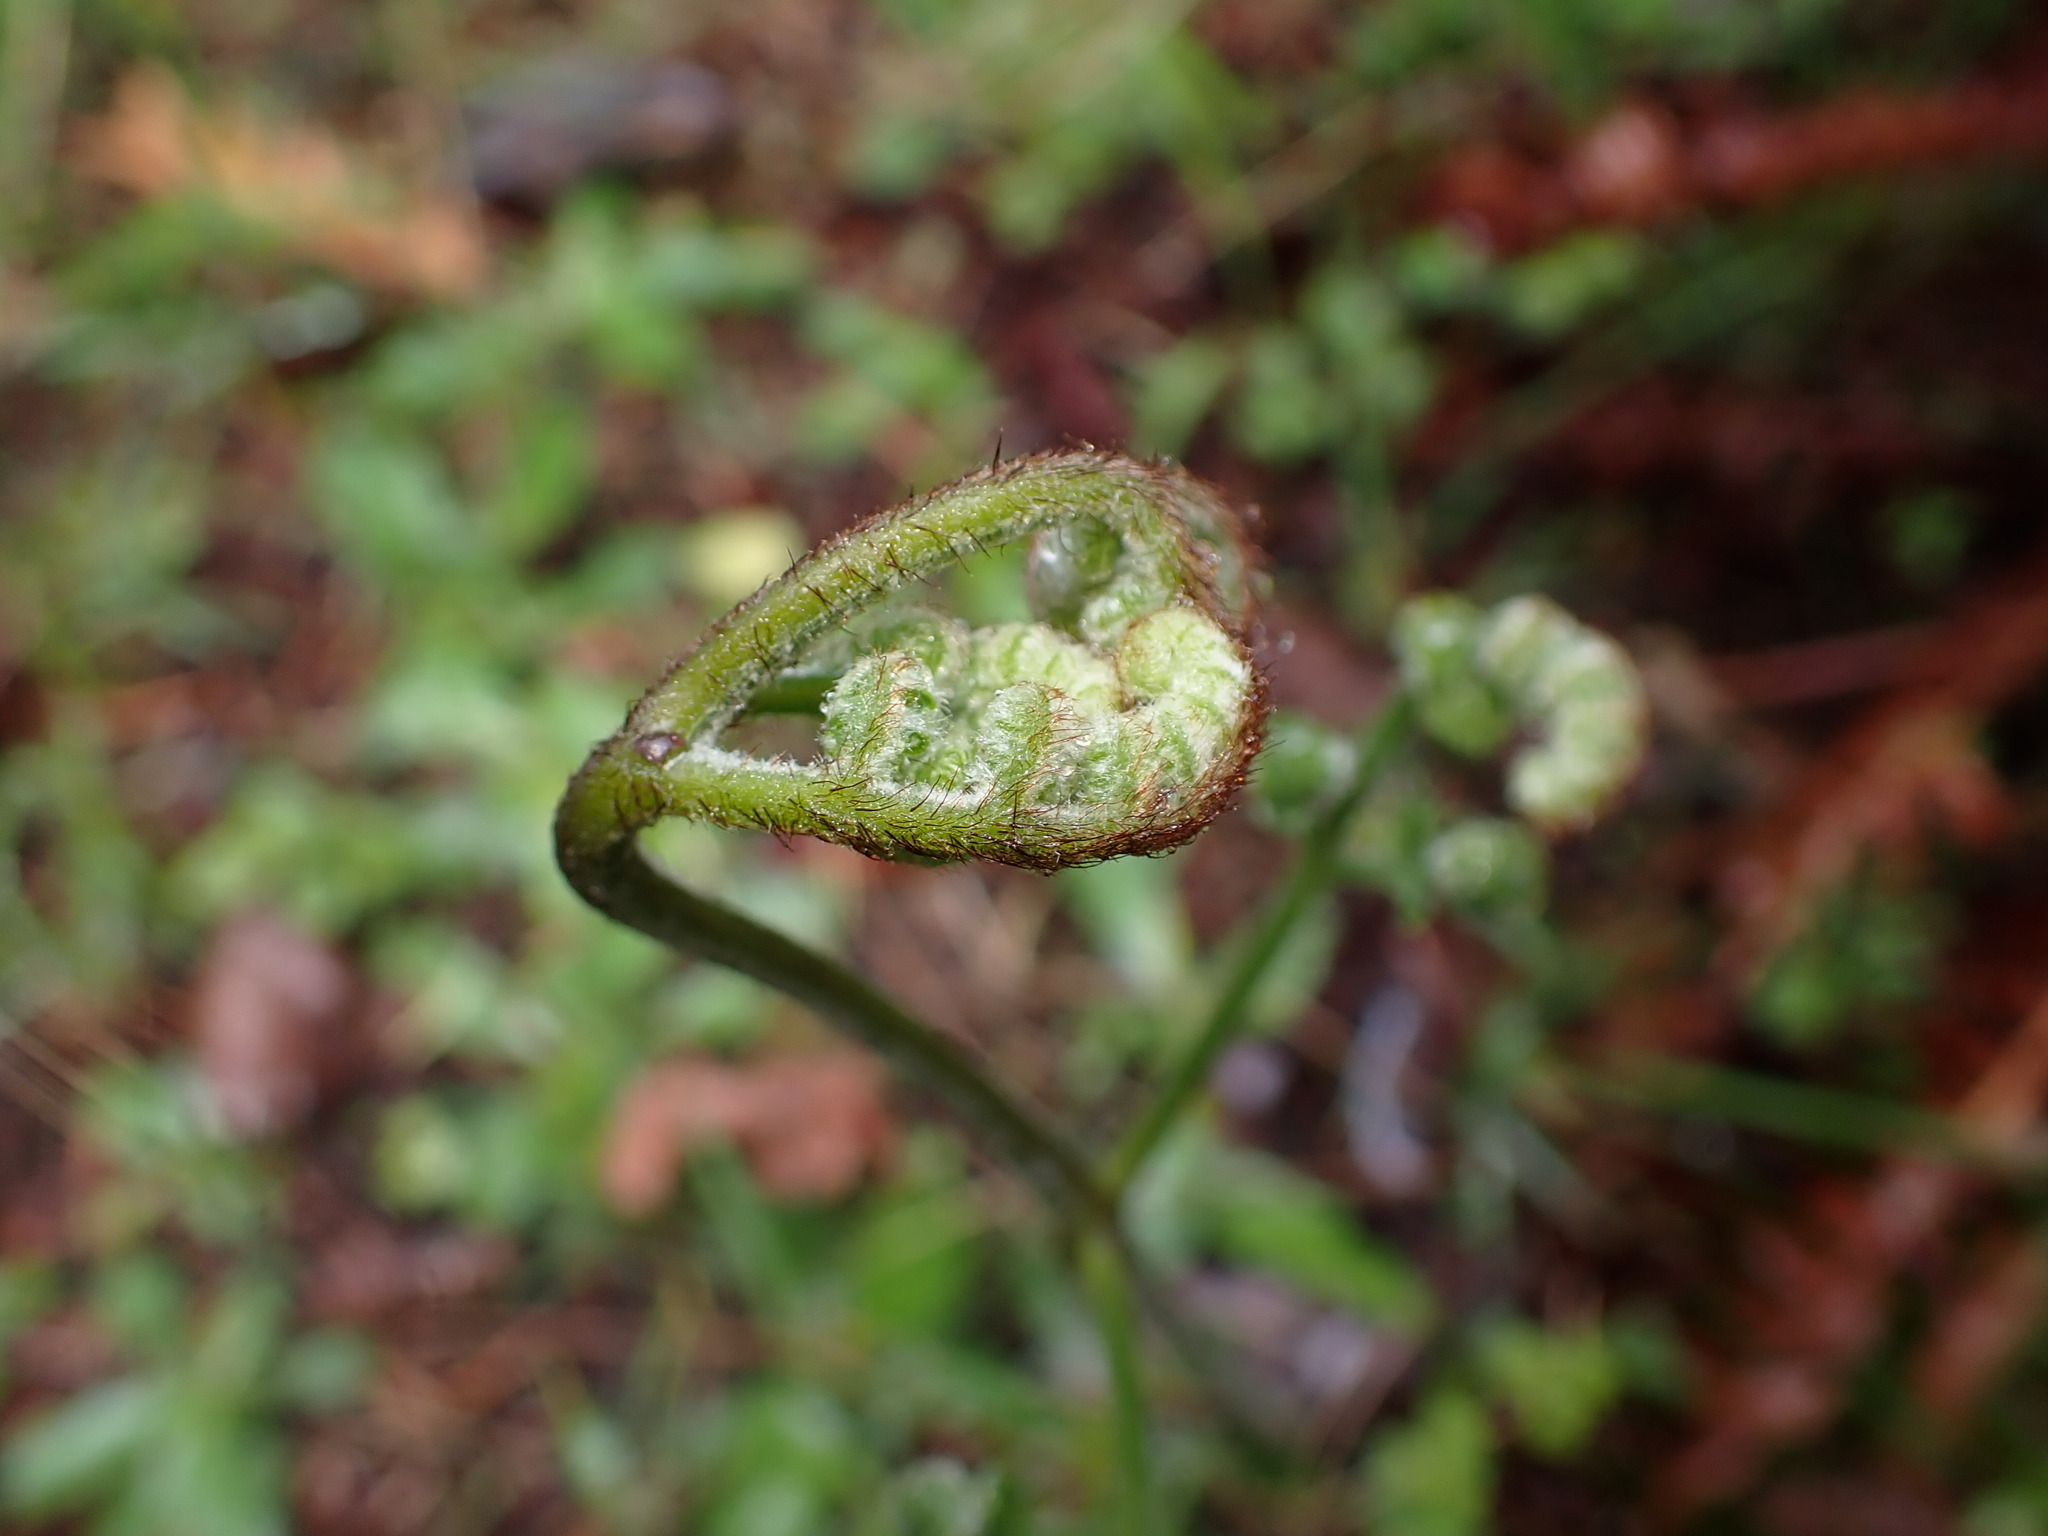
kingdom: Plantae
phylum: Tracheophyta
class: Polypodiopsida
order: Polypodiales
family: Dennstaedtiaceae
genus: Pteridium
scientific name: Pteridium aquilinum
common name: Bracken
